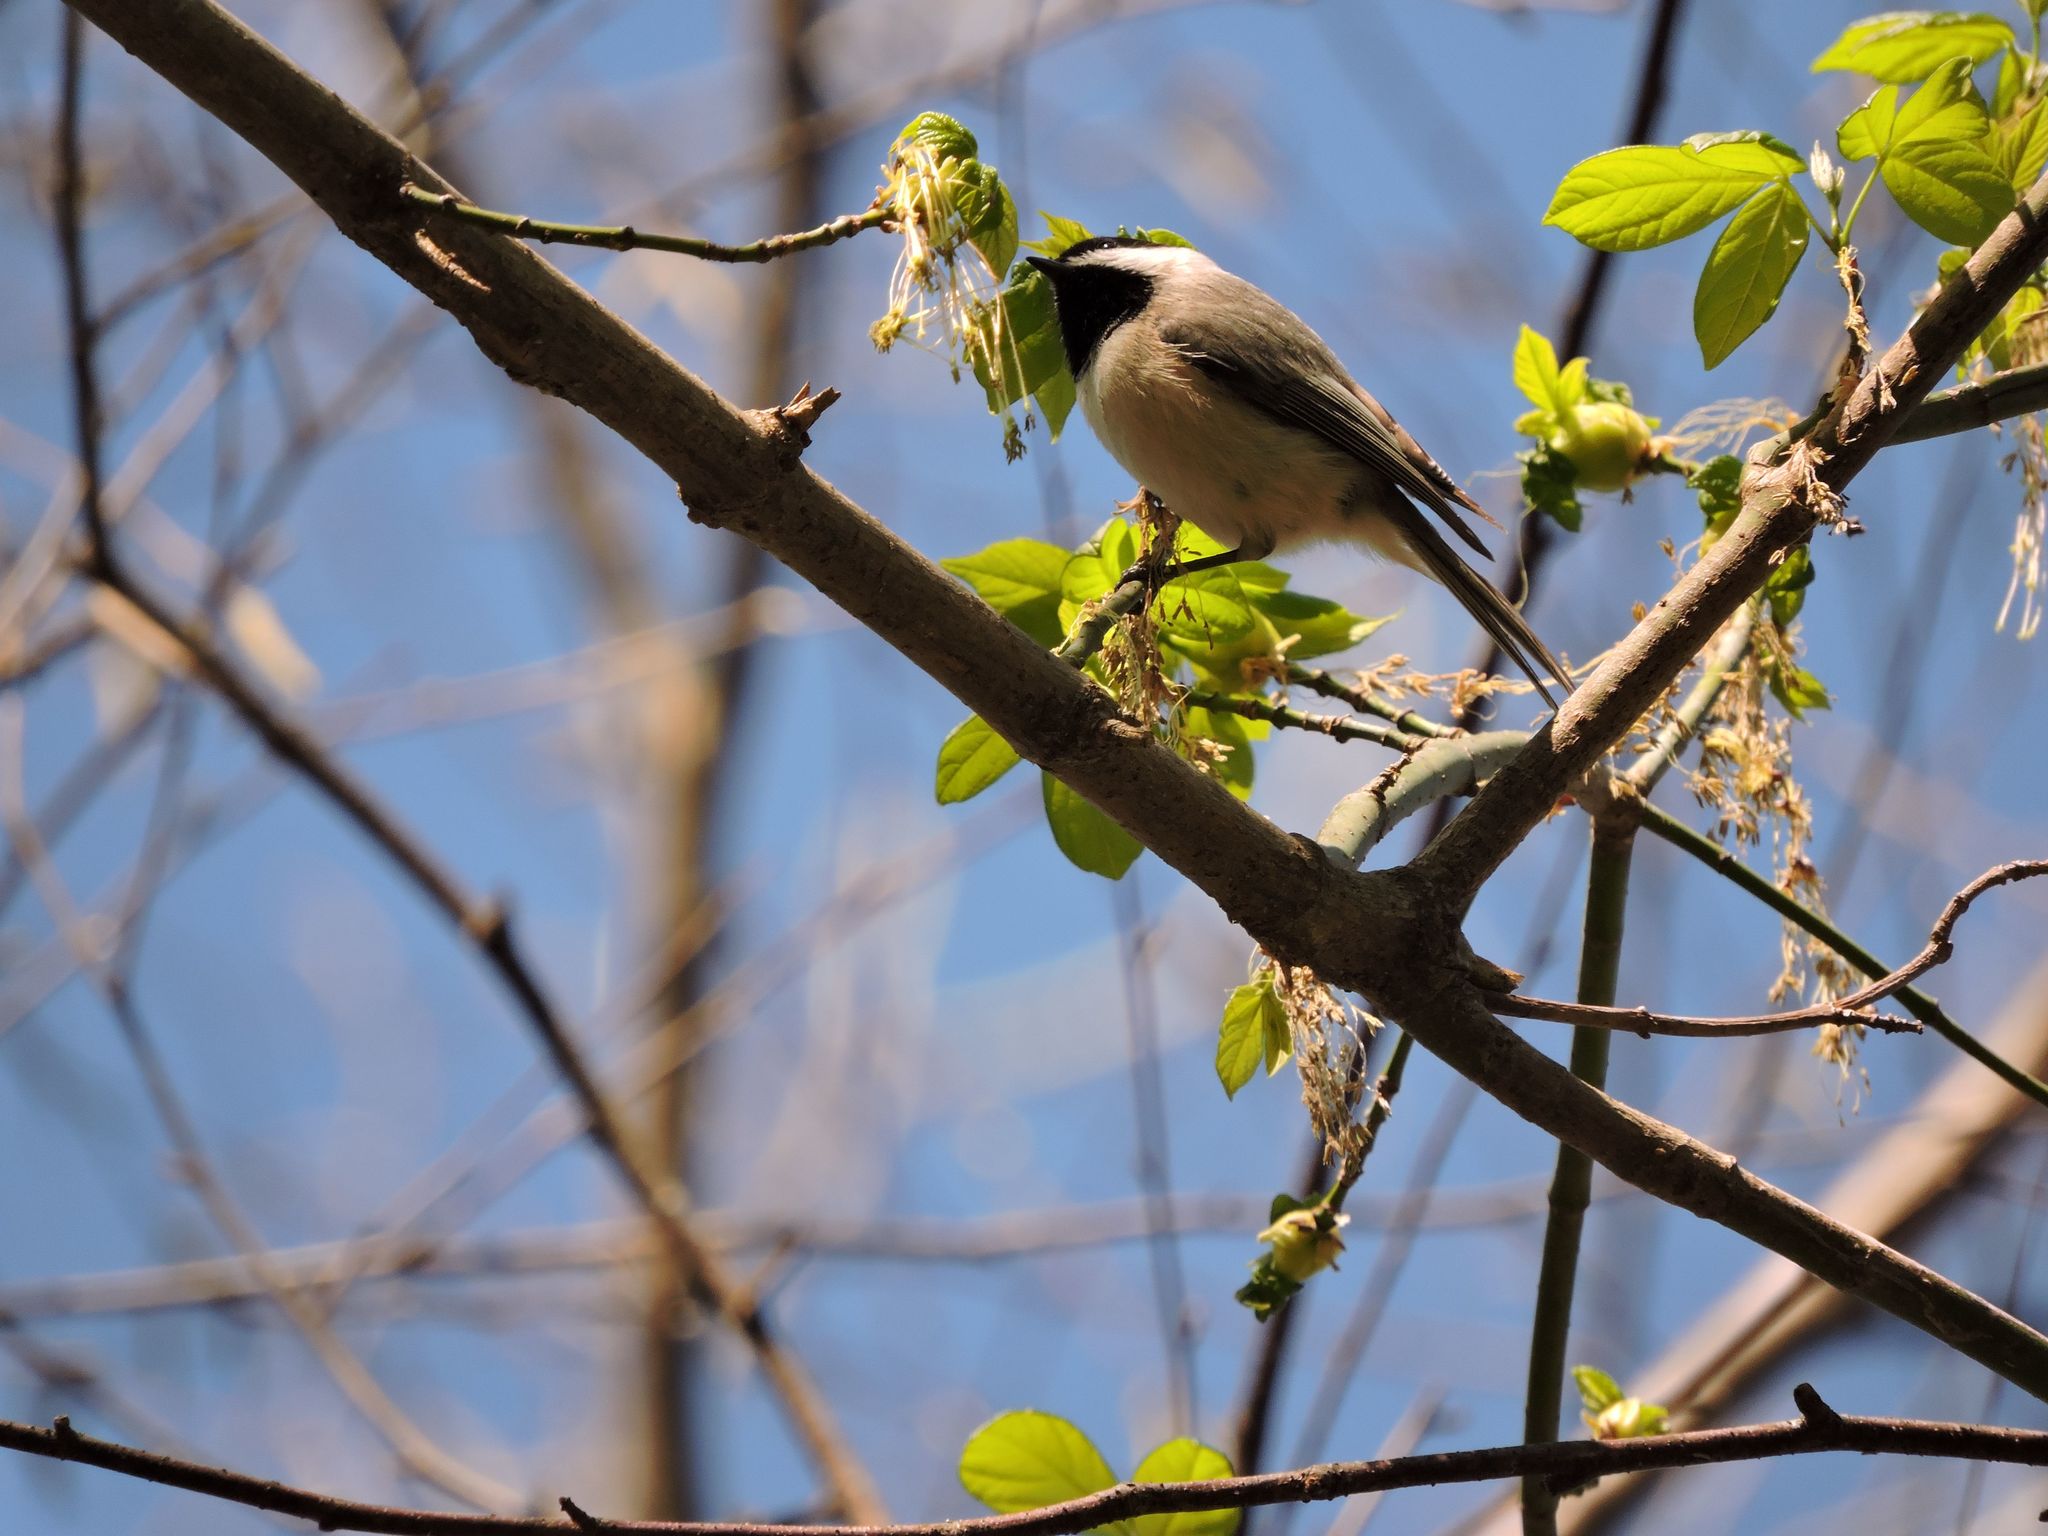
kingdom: Animalia
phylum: Chordata
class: Aves
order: Passeriformes
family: Paridae
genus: Poecile
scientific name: Poecile carolinensis
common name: Carolina chickadee
